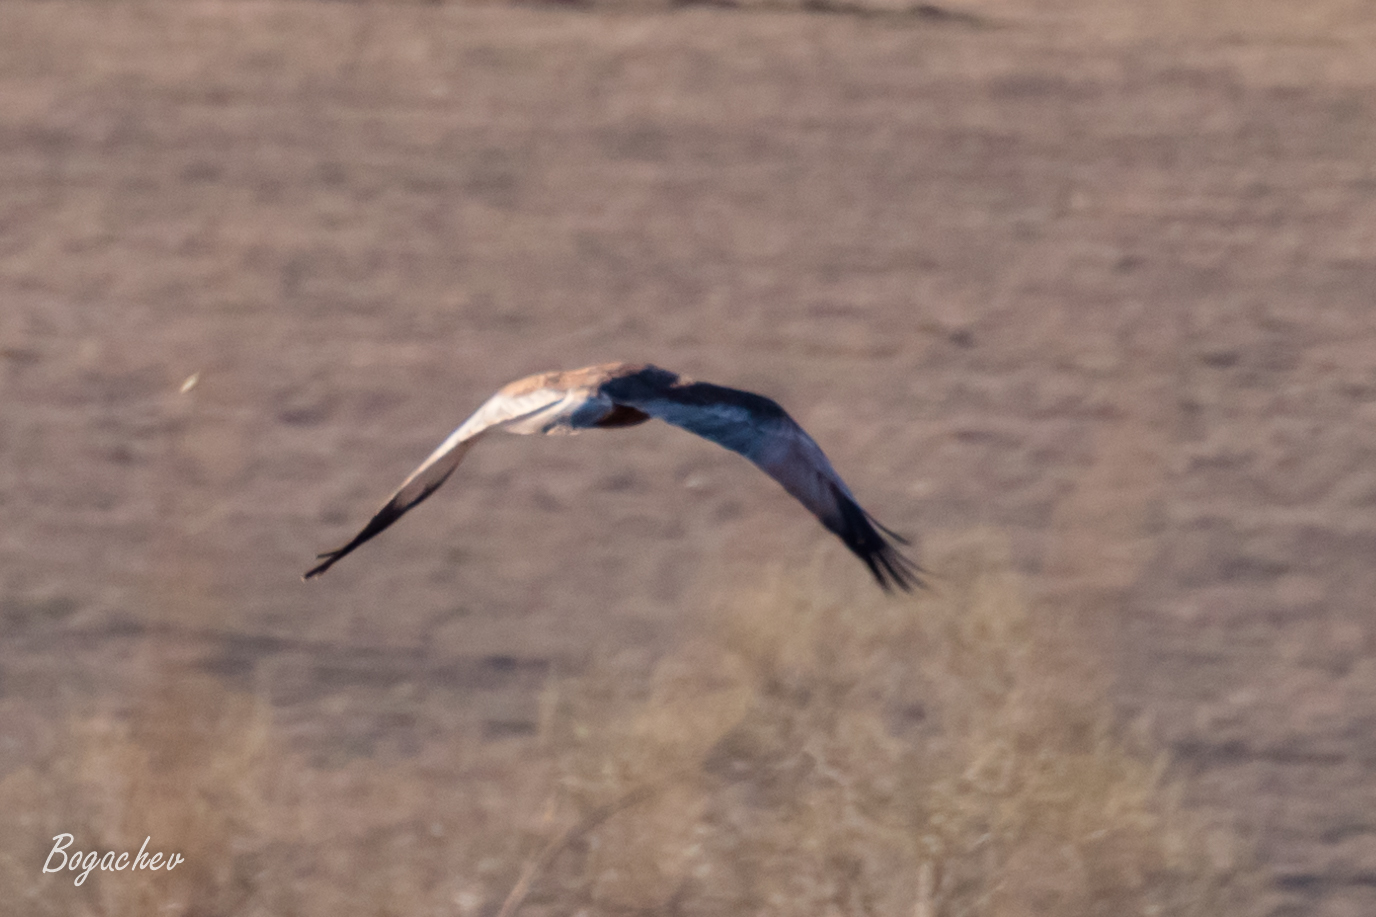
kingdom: Animalia
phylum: Chordata
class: Aves
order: Accipitriformes
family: Accipitridae
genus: Circus
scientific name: Circus aeruginosus
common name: Western marsh harrier
